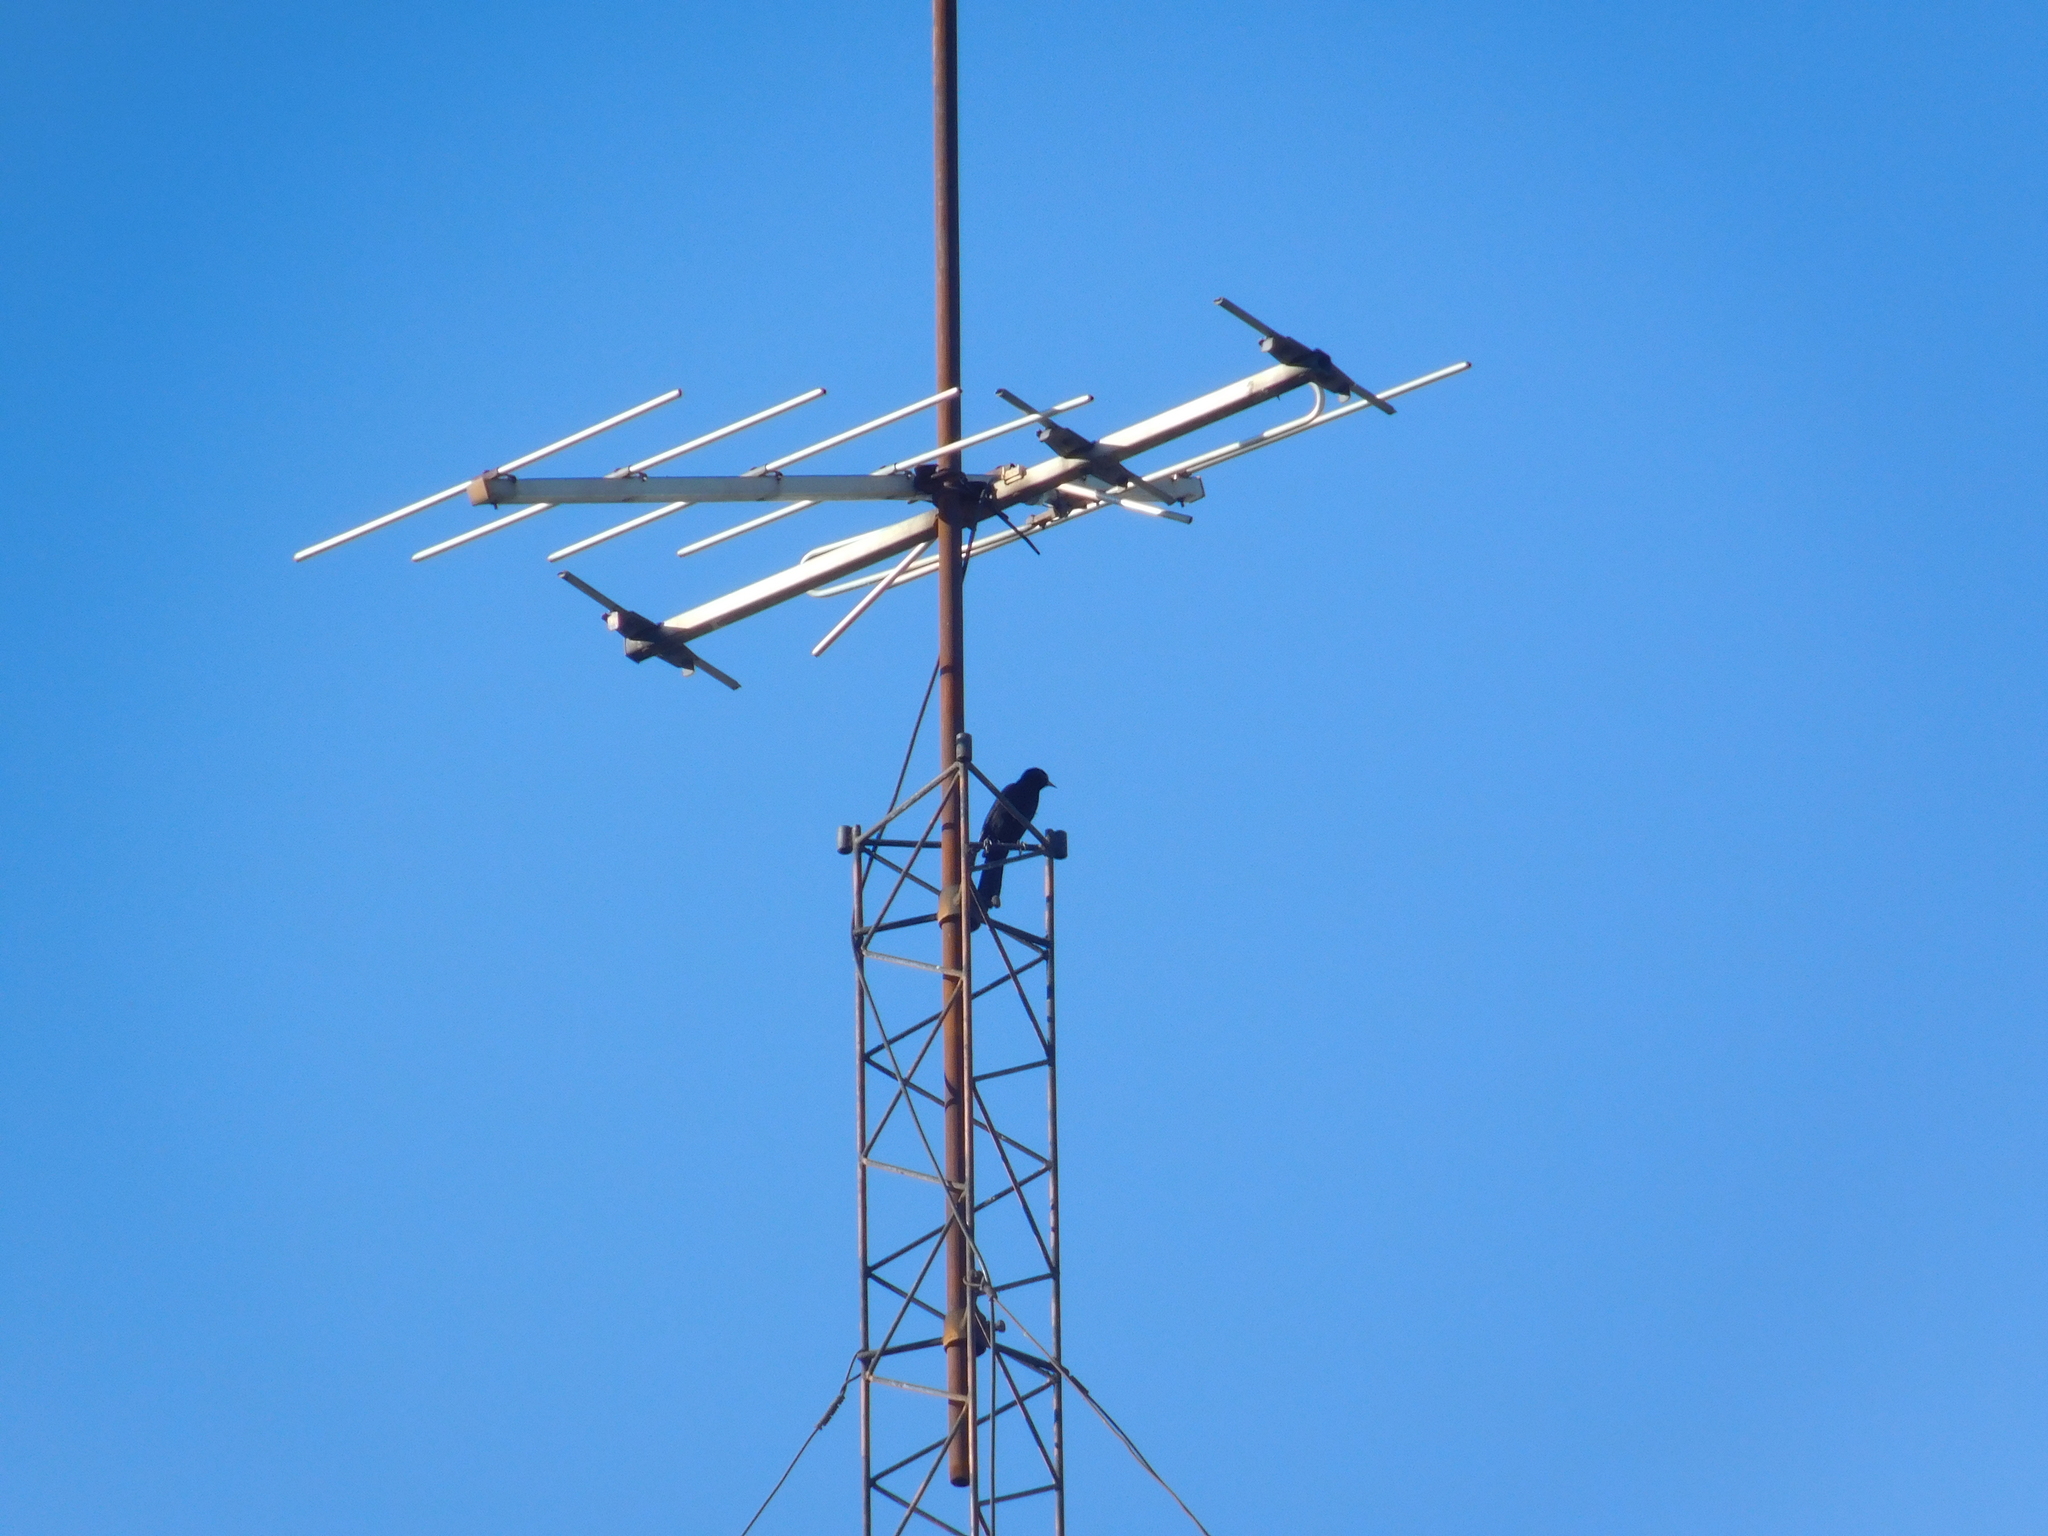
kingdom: Animalia
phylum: Chordata
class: Aves
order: Passeriformes
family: Icteridae
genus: Icterus
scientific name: Icterus cayanensis
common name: Epaulet oriole
